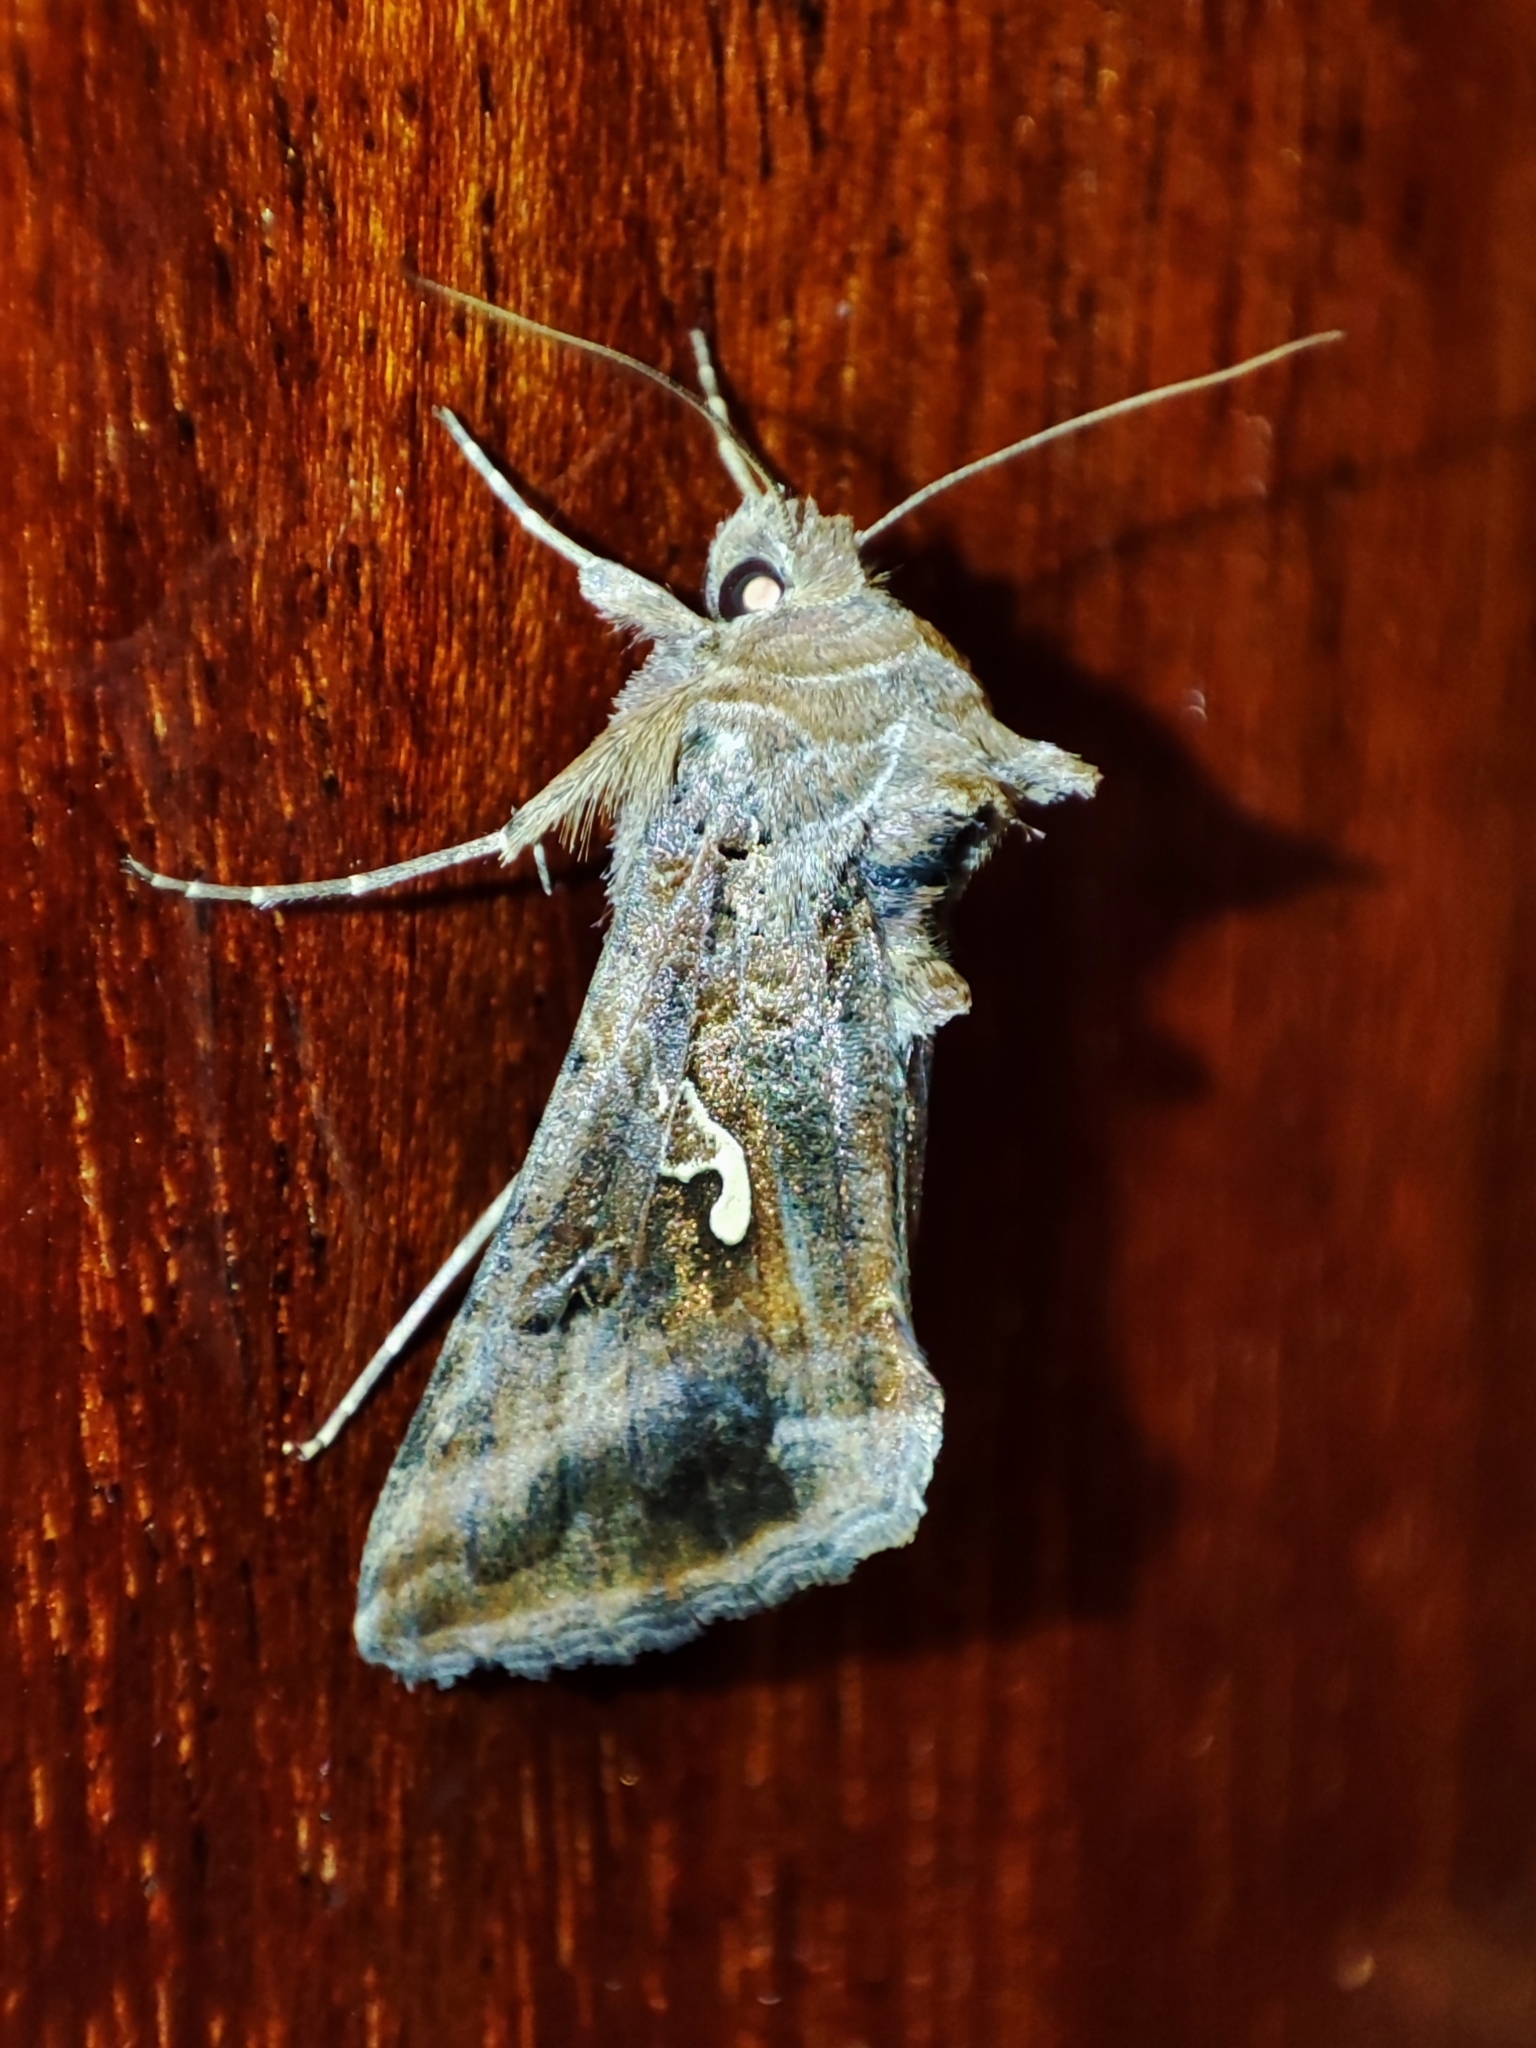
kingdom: Animalia
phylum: Arthropoda
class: Insecta
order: Lepidoptera
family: Noctuidae
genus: Autographa
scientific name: Autographa gamma
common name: Silver y
